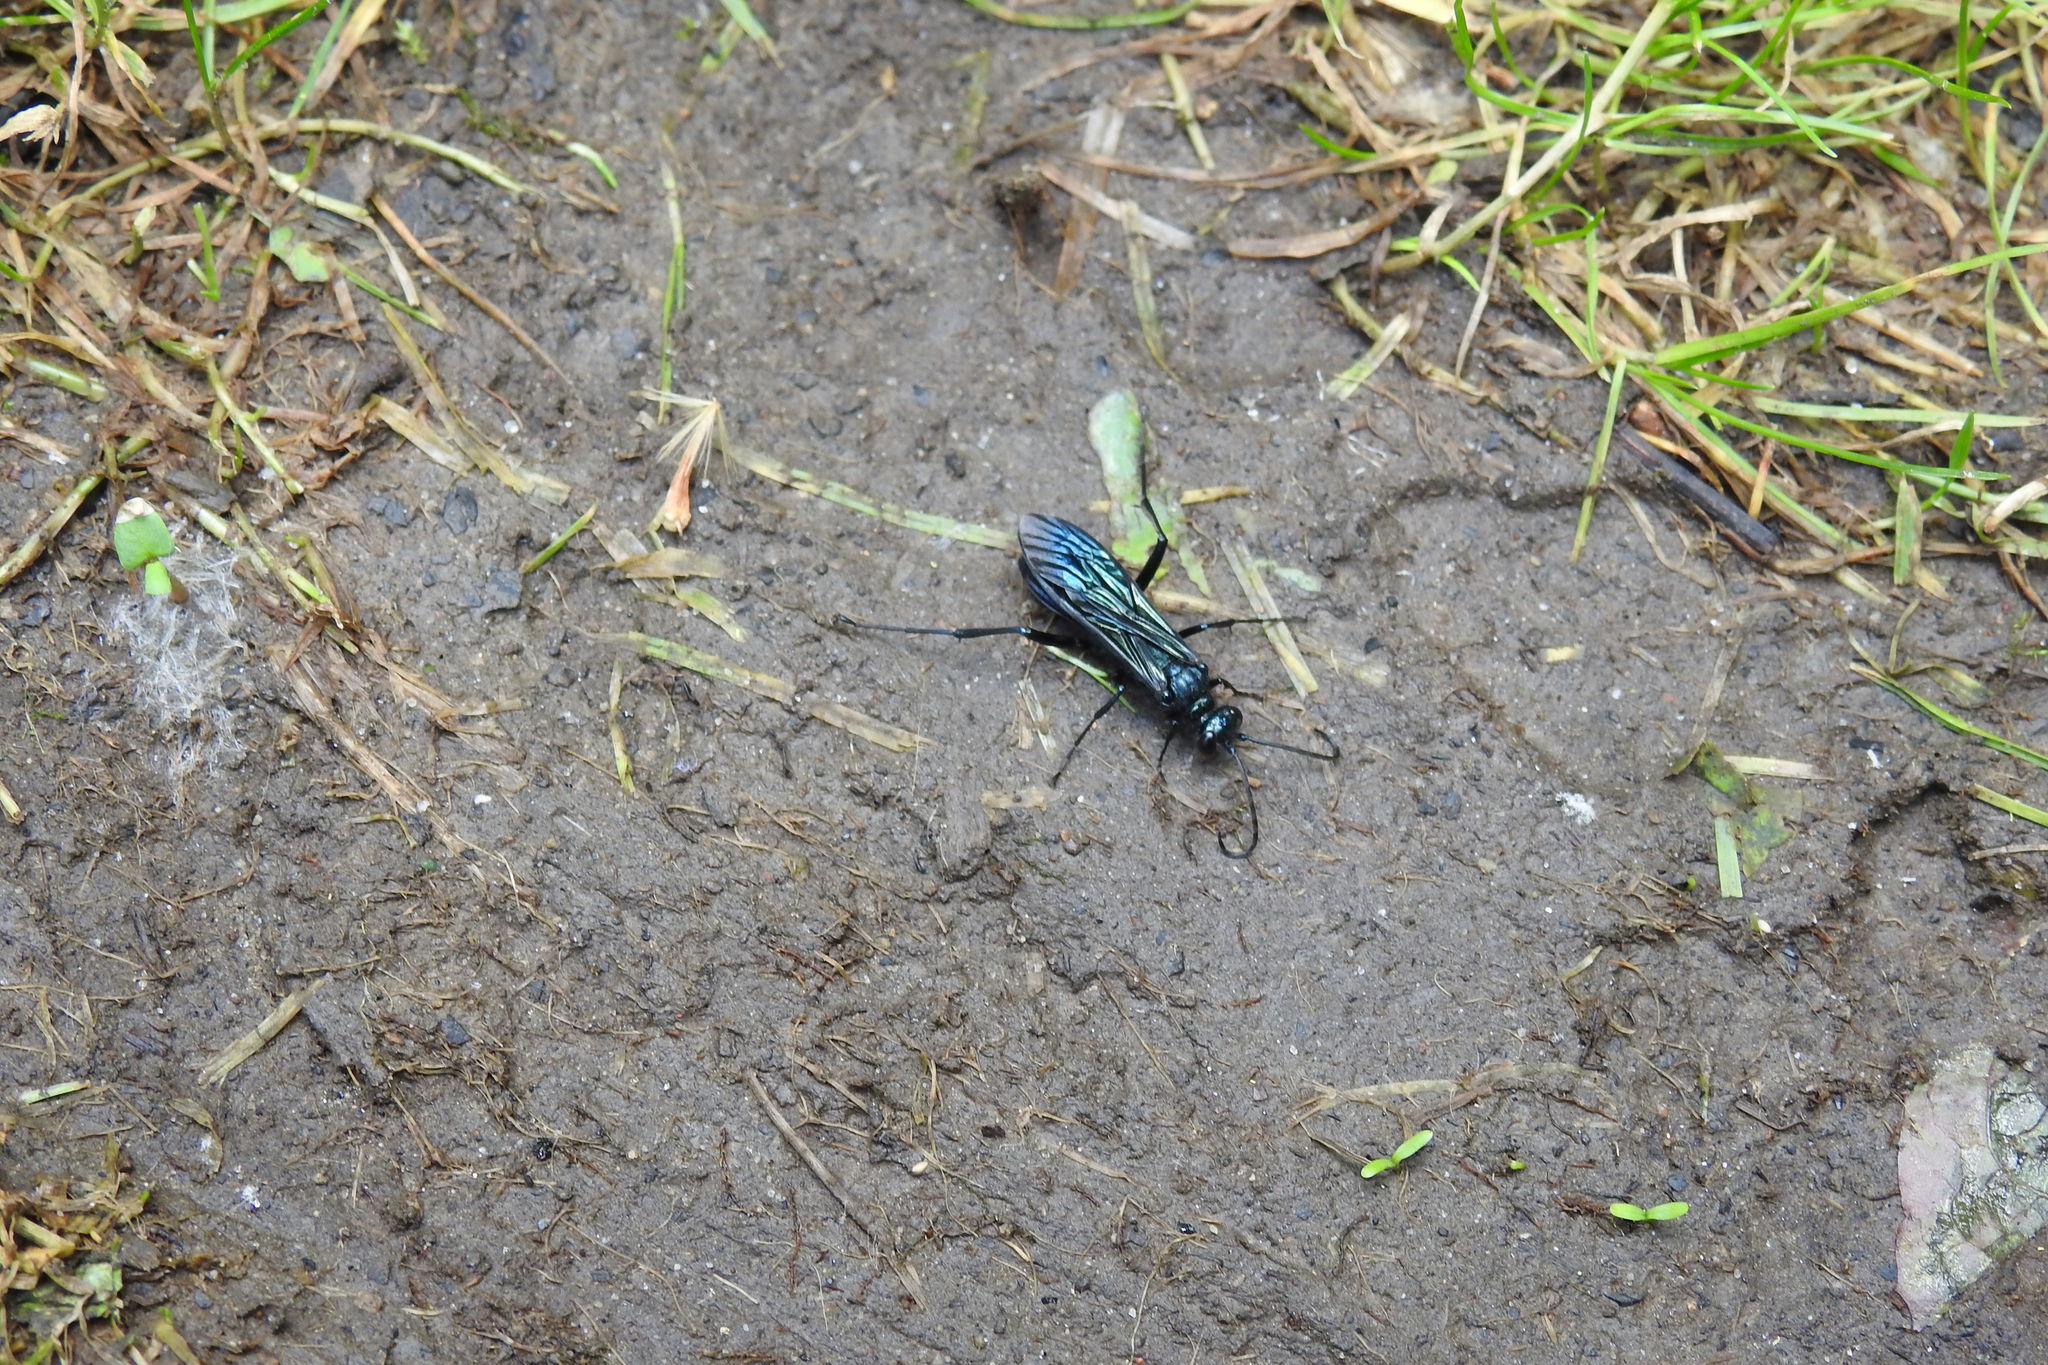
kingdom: Animalia
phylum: Arthropoda
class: Insecta
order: Hymenoptera
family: Sphecidae
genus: Chalybion
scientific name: Chalybion californicum
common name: Mud dauber
